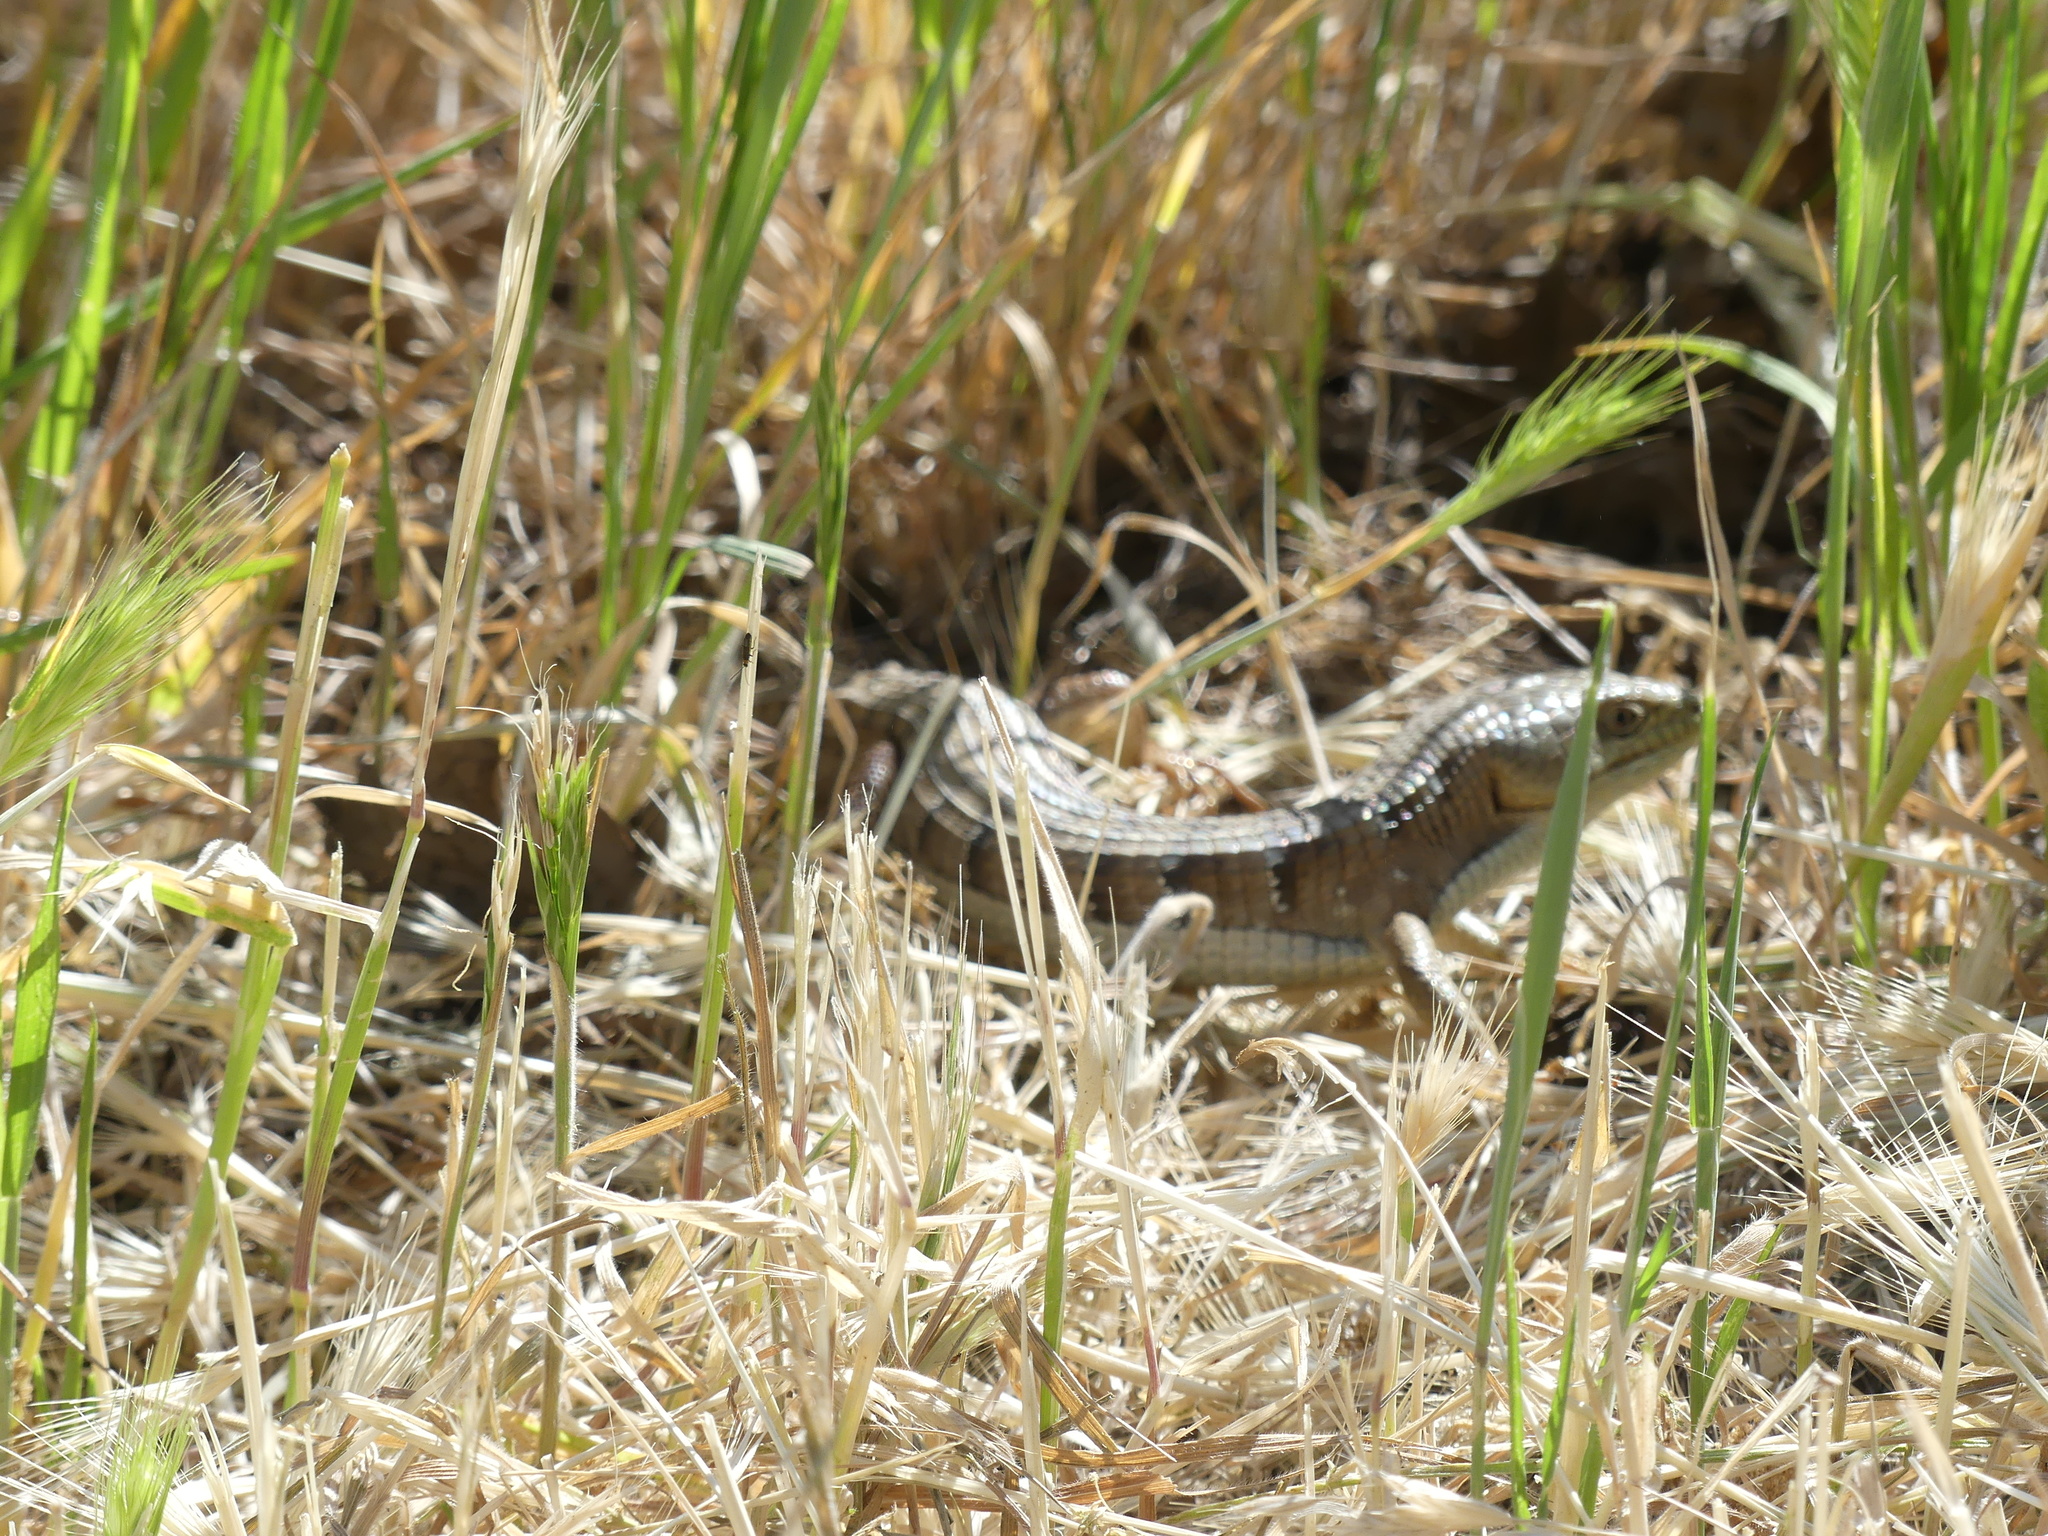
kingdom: Animalia
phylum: Chordata
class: Squamata
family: Anguidae
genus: Elgaria
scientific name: Elgaria multicarinata
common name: Southern alligator lizard
